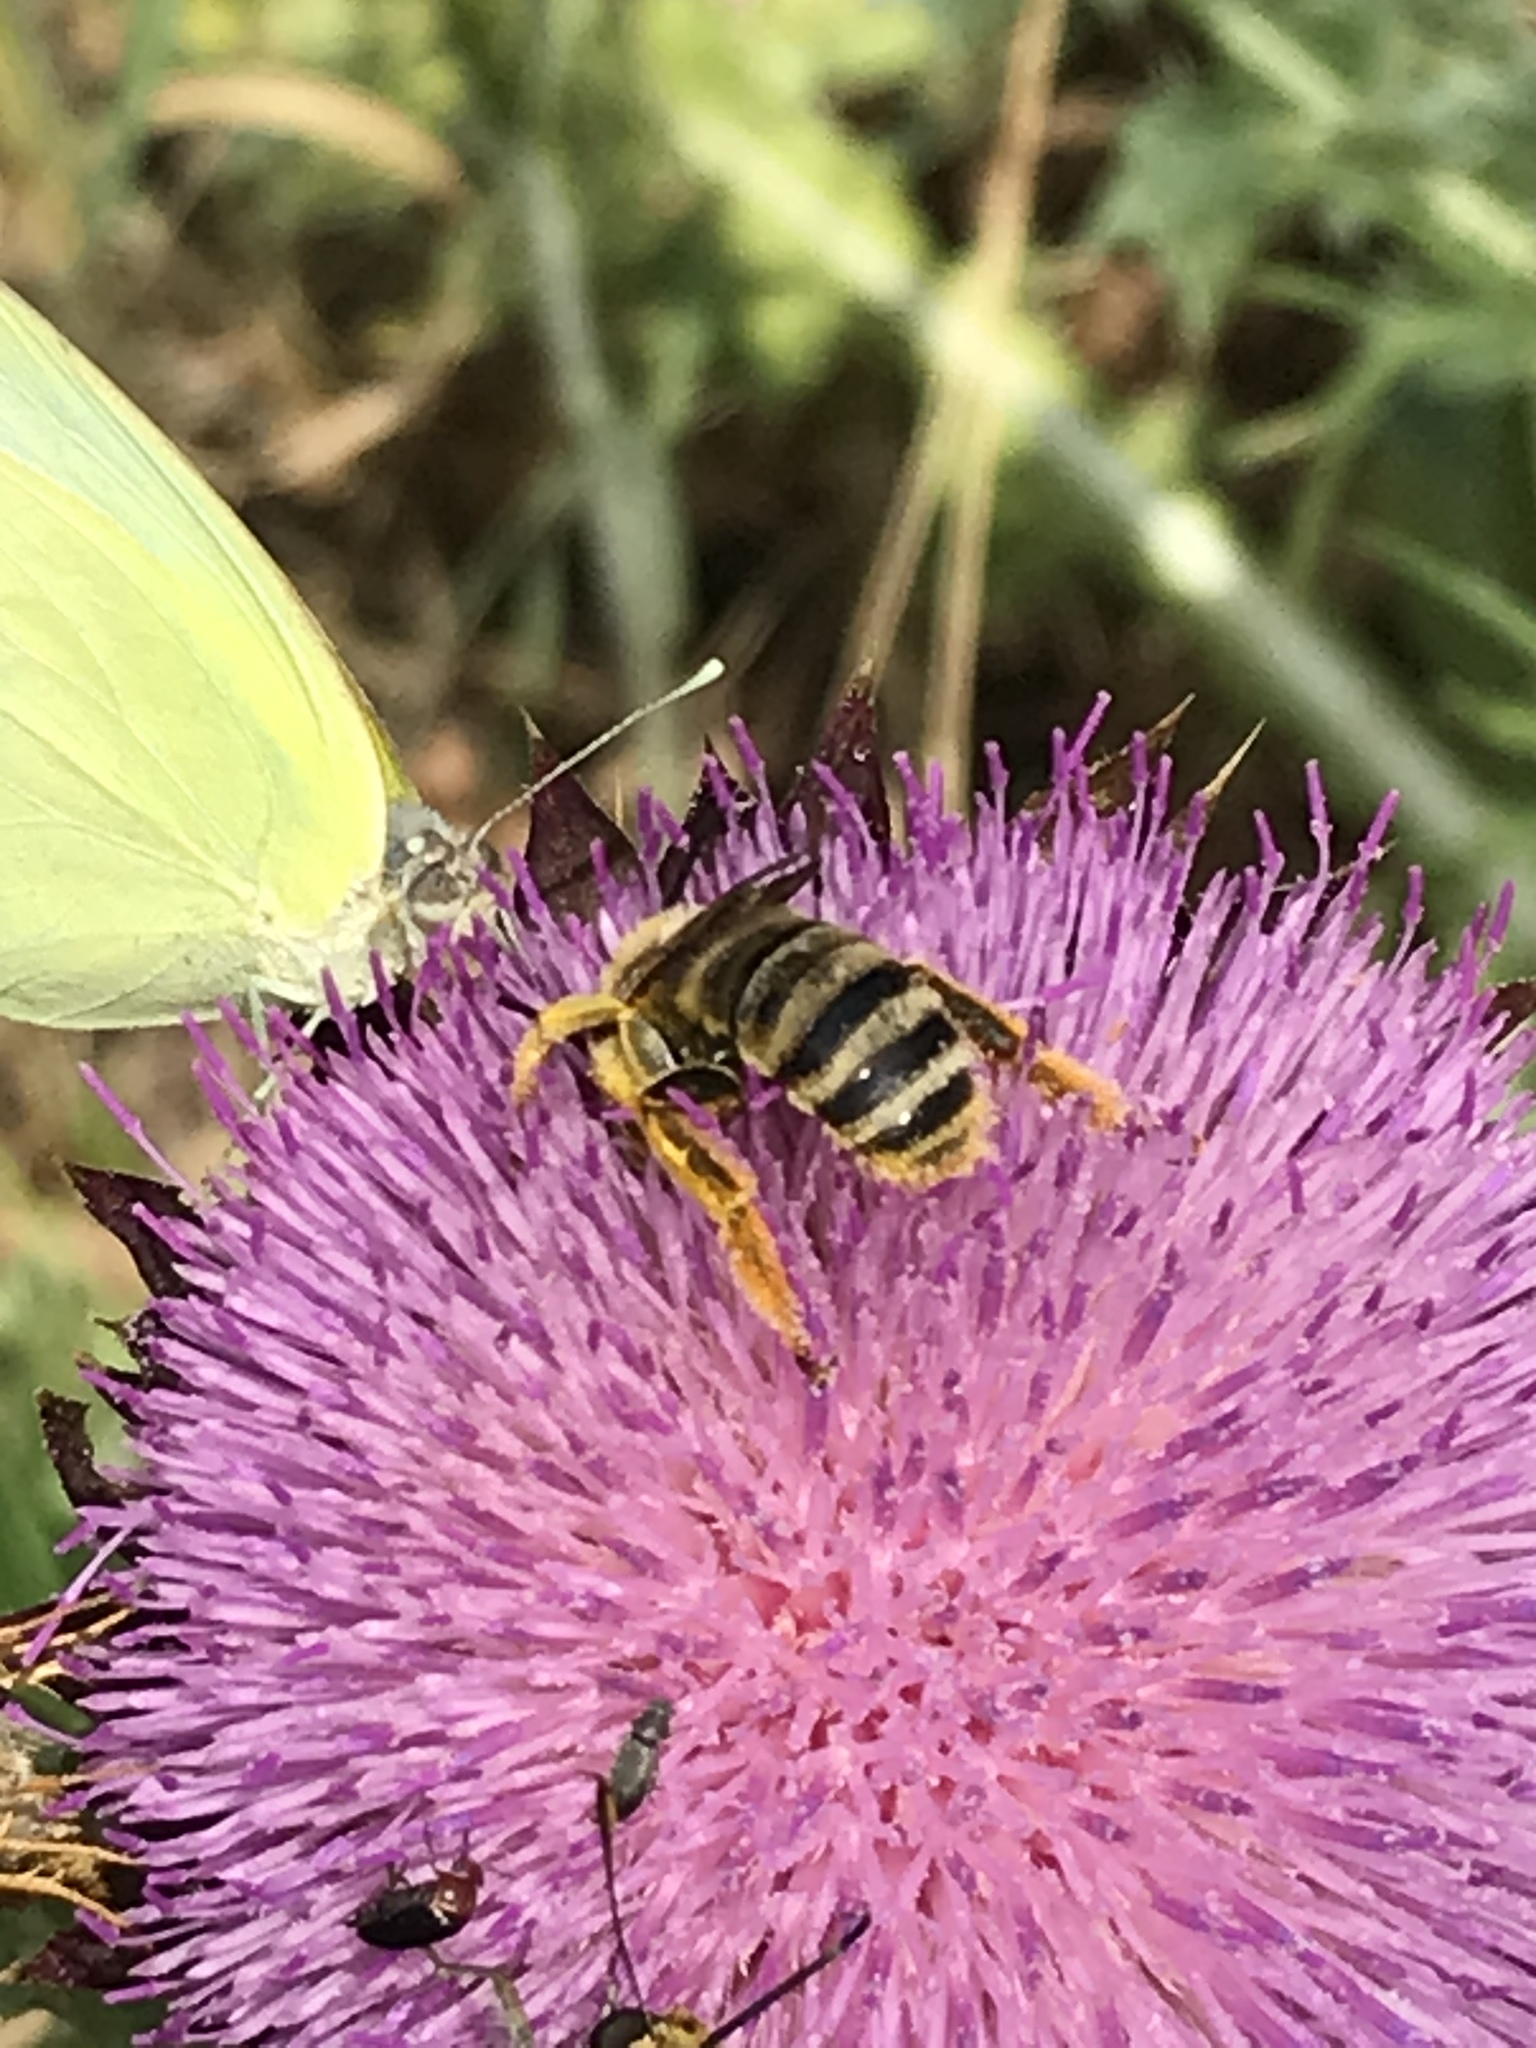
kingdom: Animalia
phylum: Arthropoda
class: Insecta
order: Lepidoptera
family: Pieridae
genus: Kricogonia
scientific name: Kricogonia lyside
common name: Guayacan sulphur,
